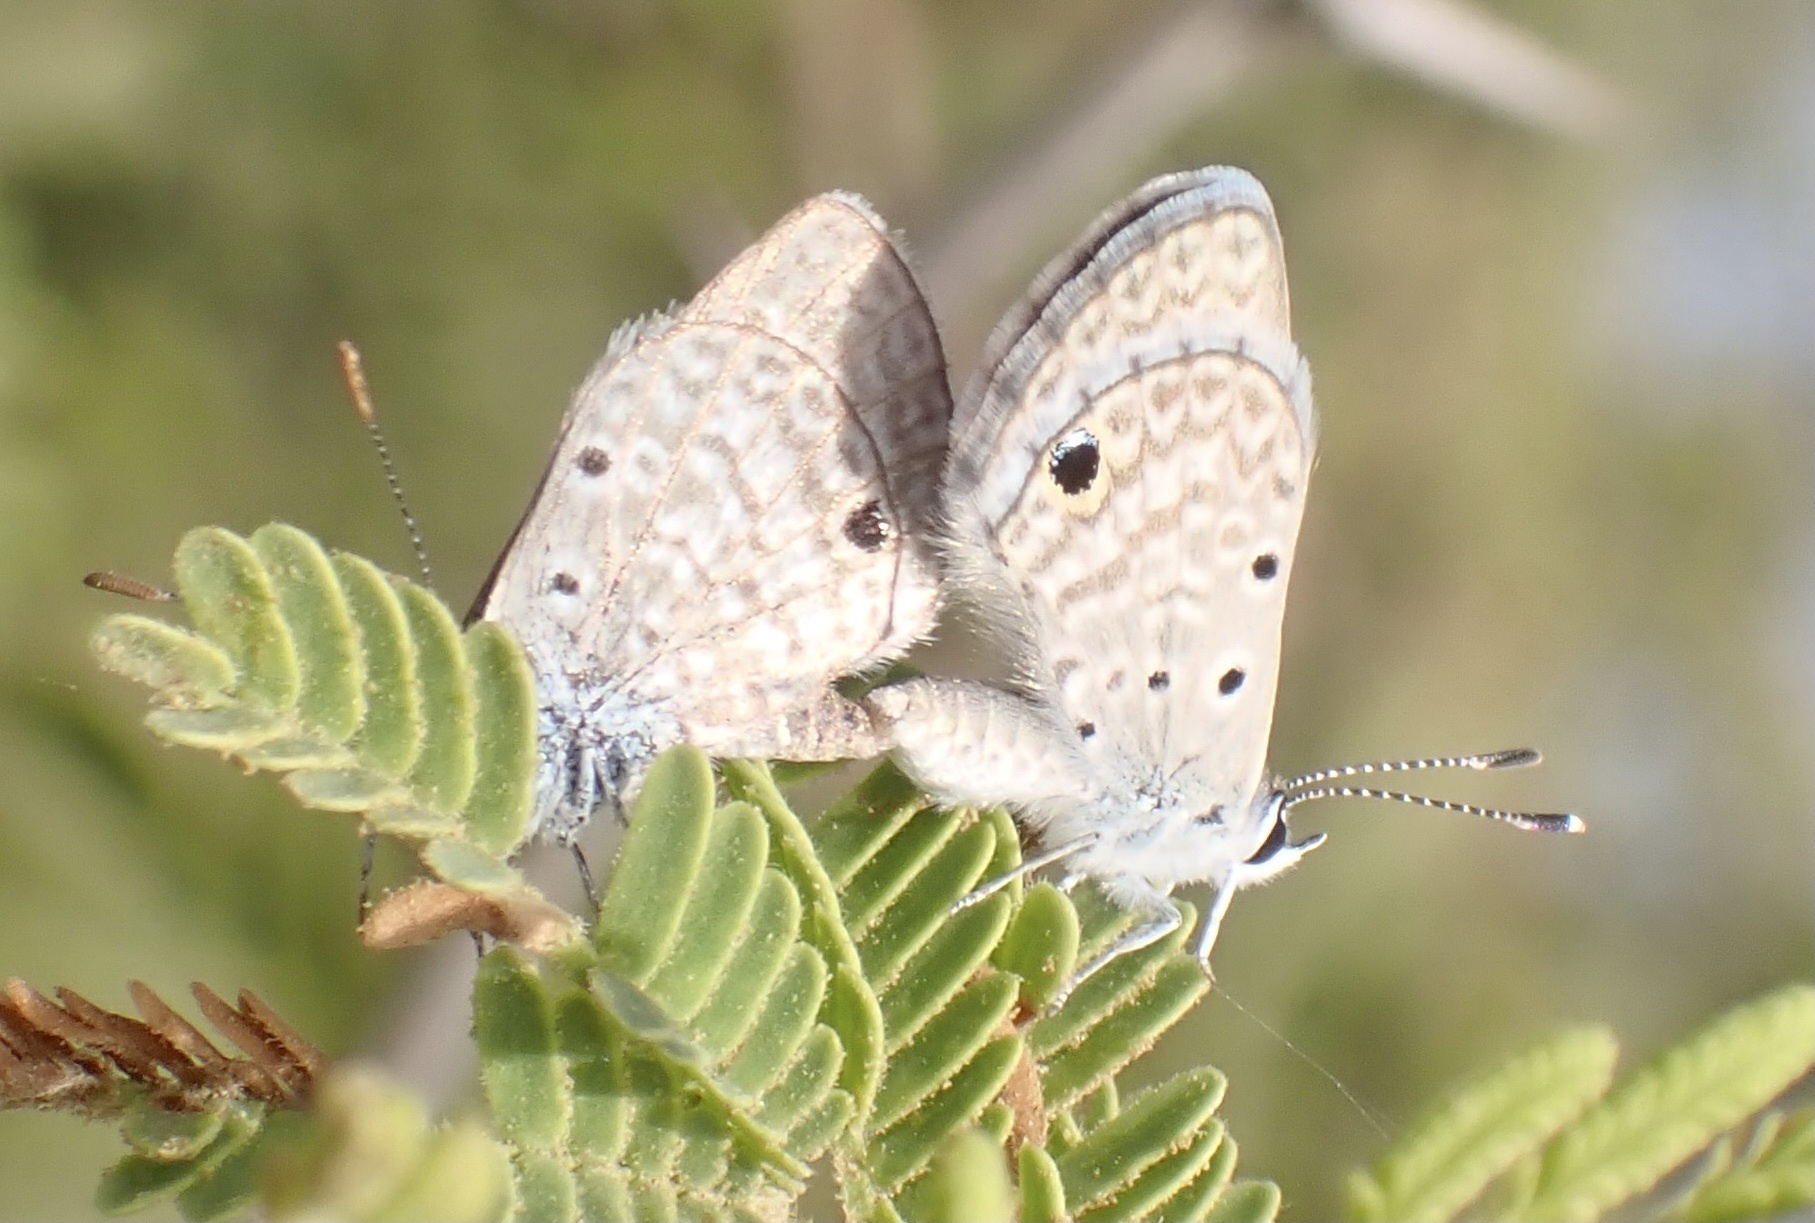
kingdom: Animalia
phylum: Arthropoda
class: Insecta
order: Lepidoptera
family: Lycaenidae
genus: Hemiargus
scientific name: Hemiargus hanno
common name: Common blue
